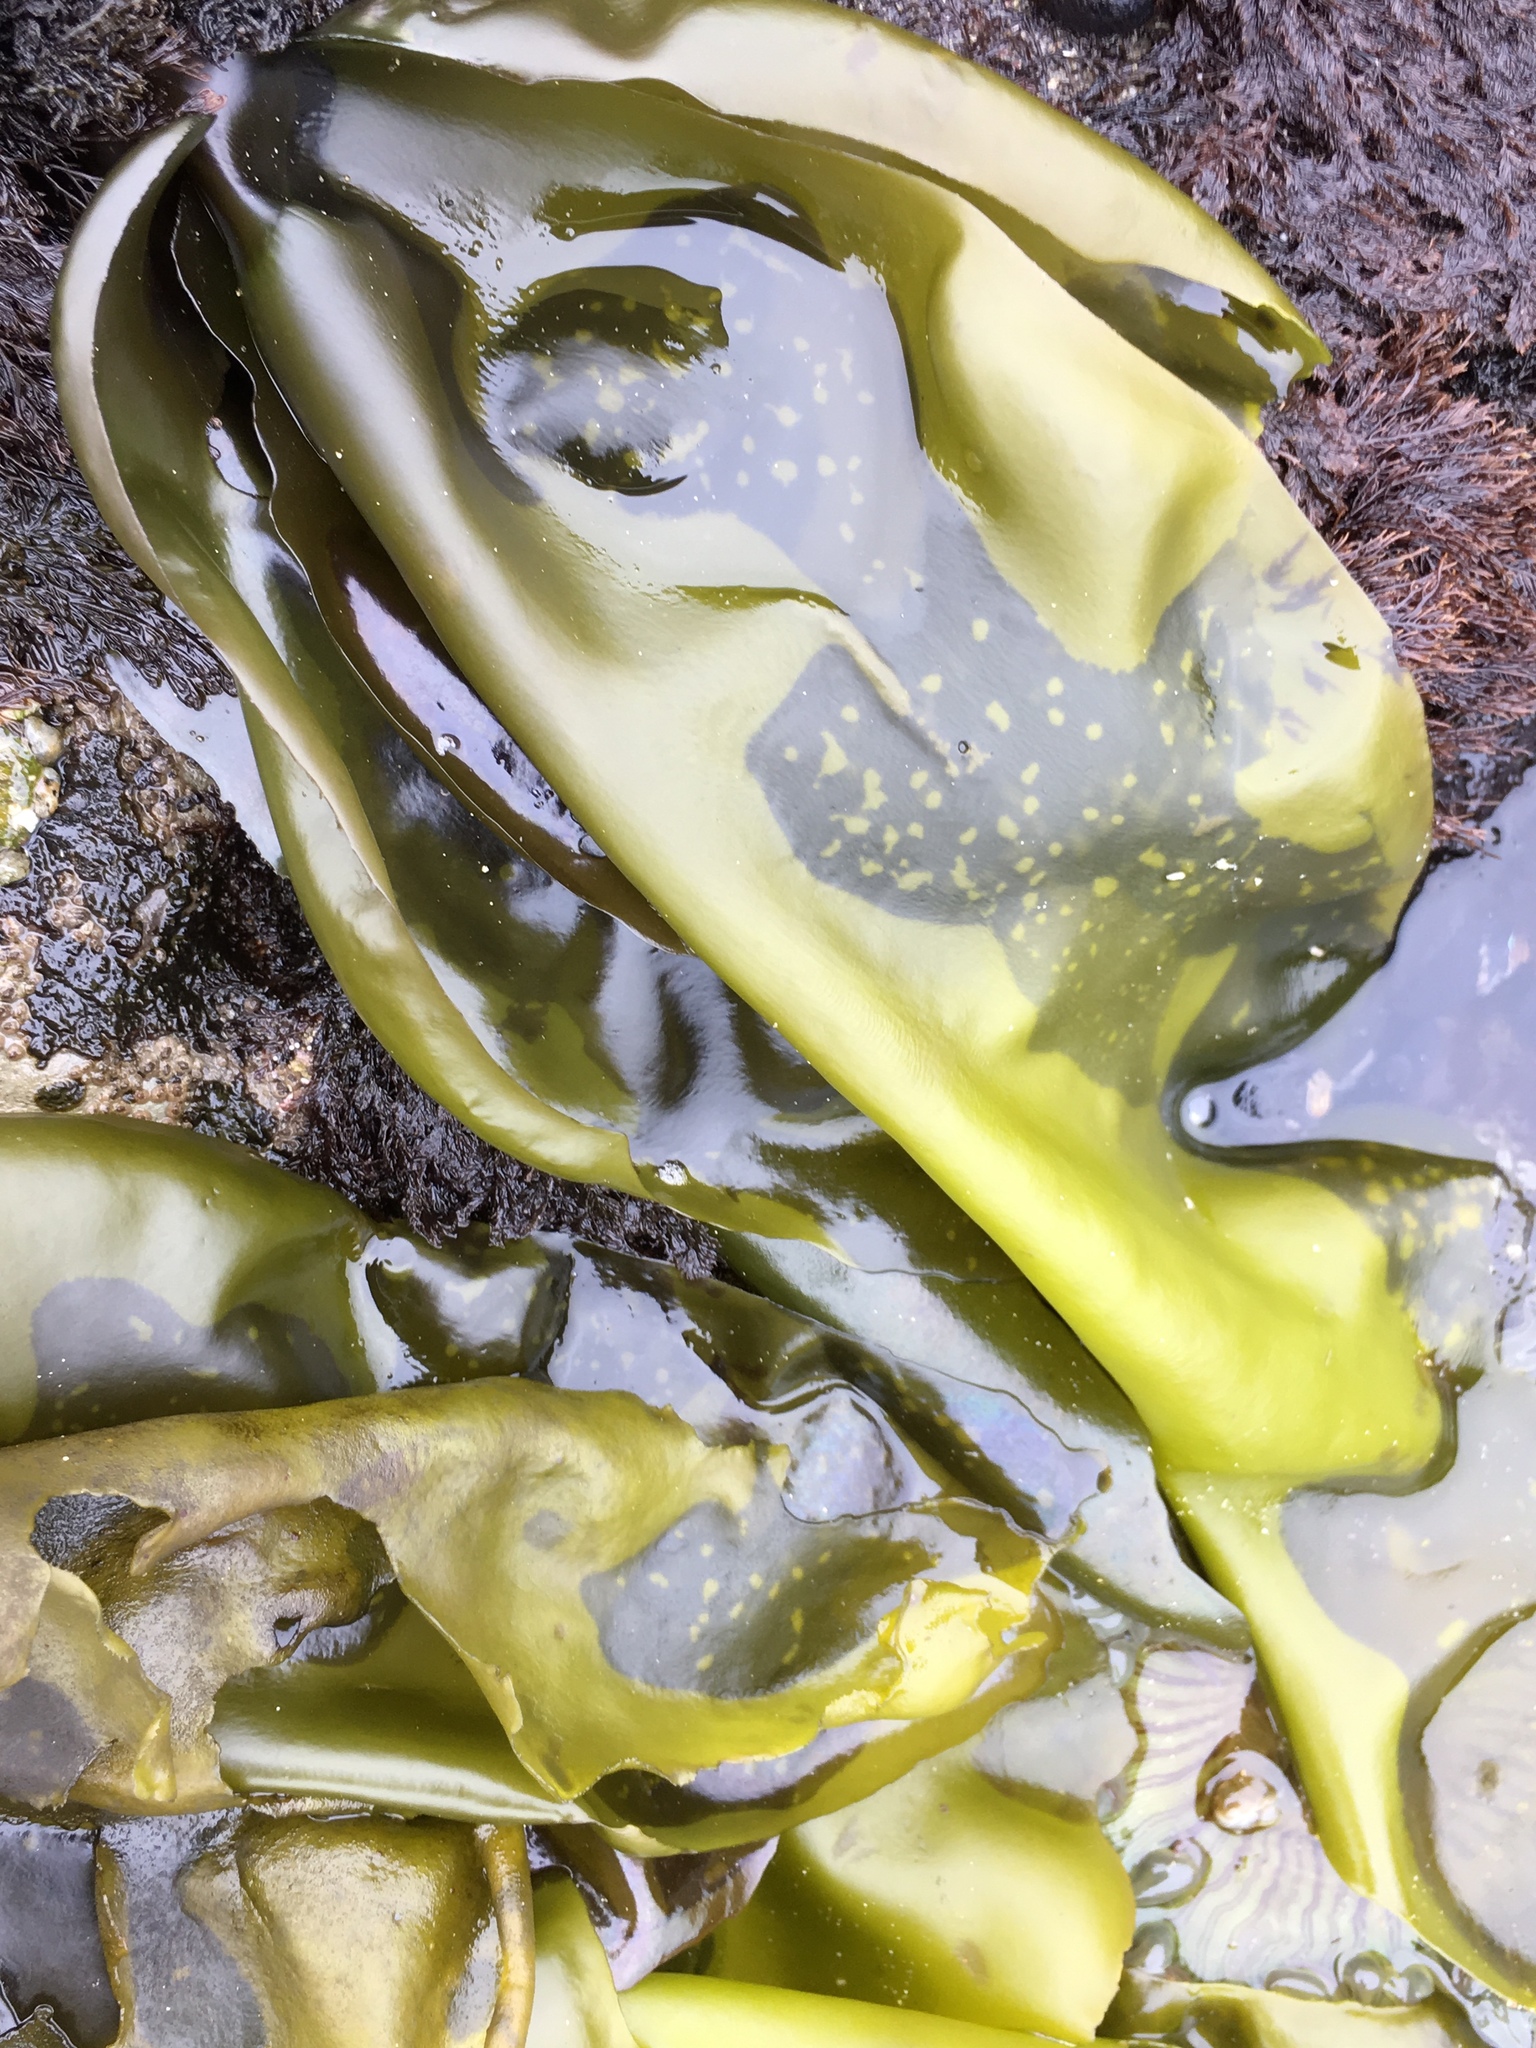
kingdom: Plantae
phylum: Rhodophyta
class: Florideophyceae
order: Gigartinales
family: Gigartinaceae
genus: Mazzaella
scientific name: Mazzaella flaccida
